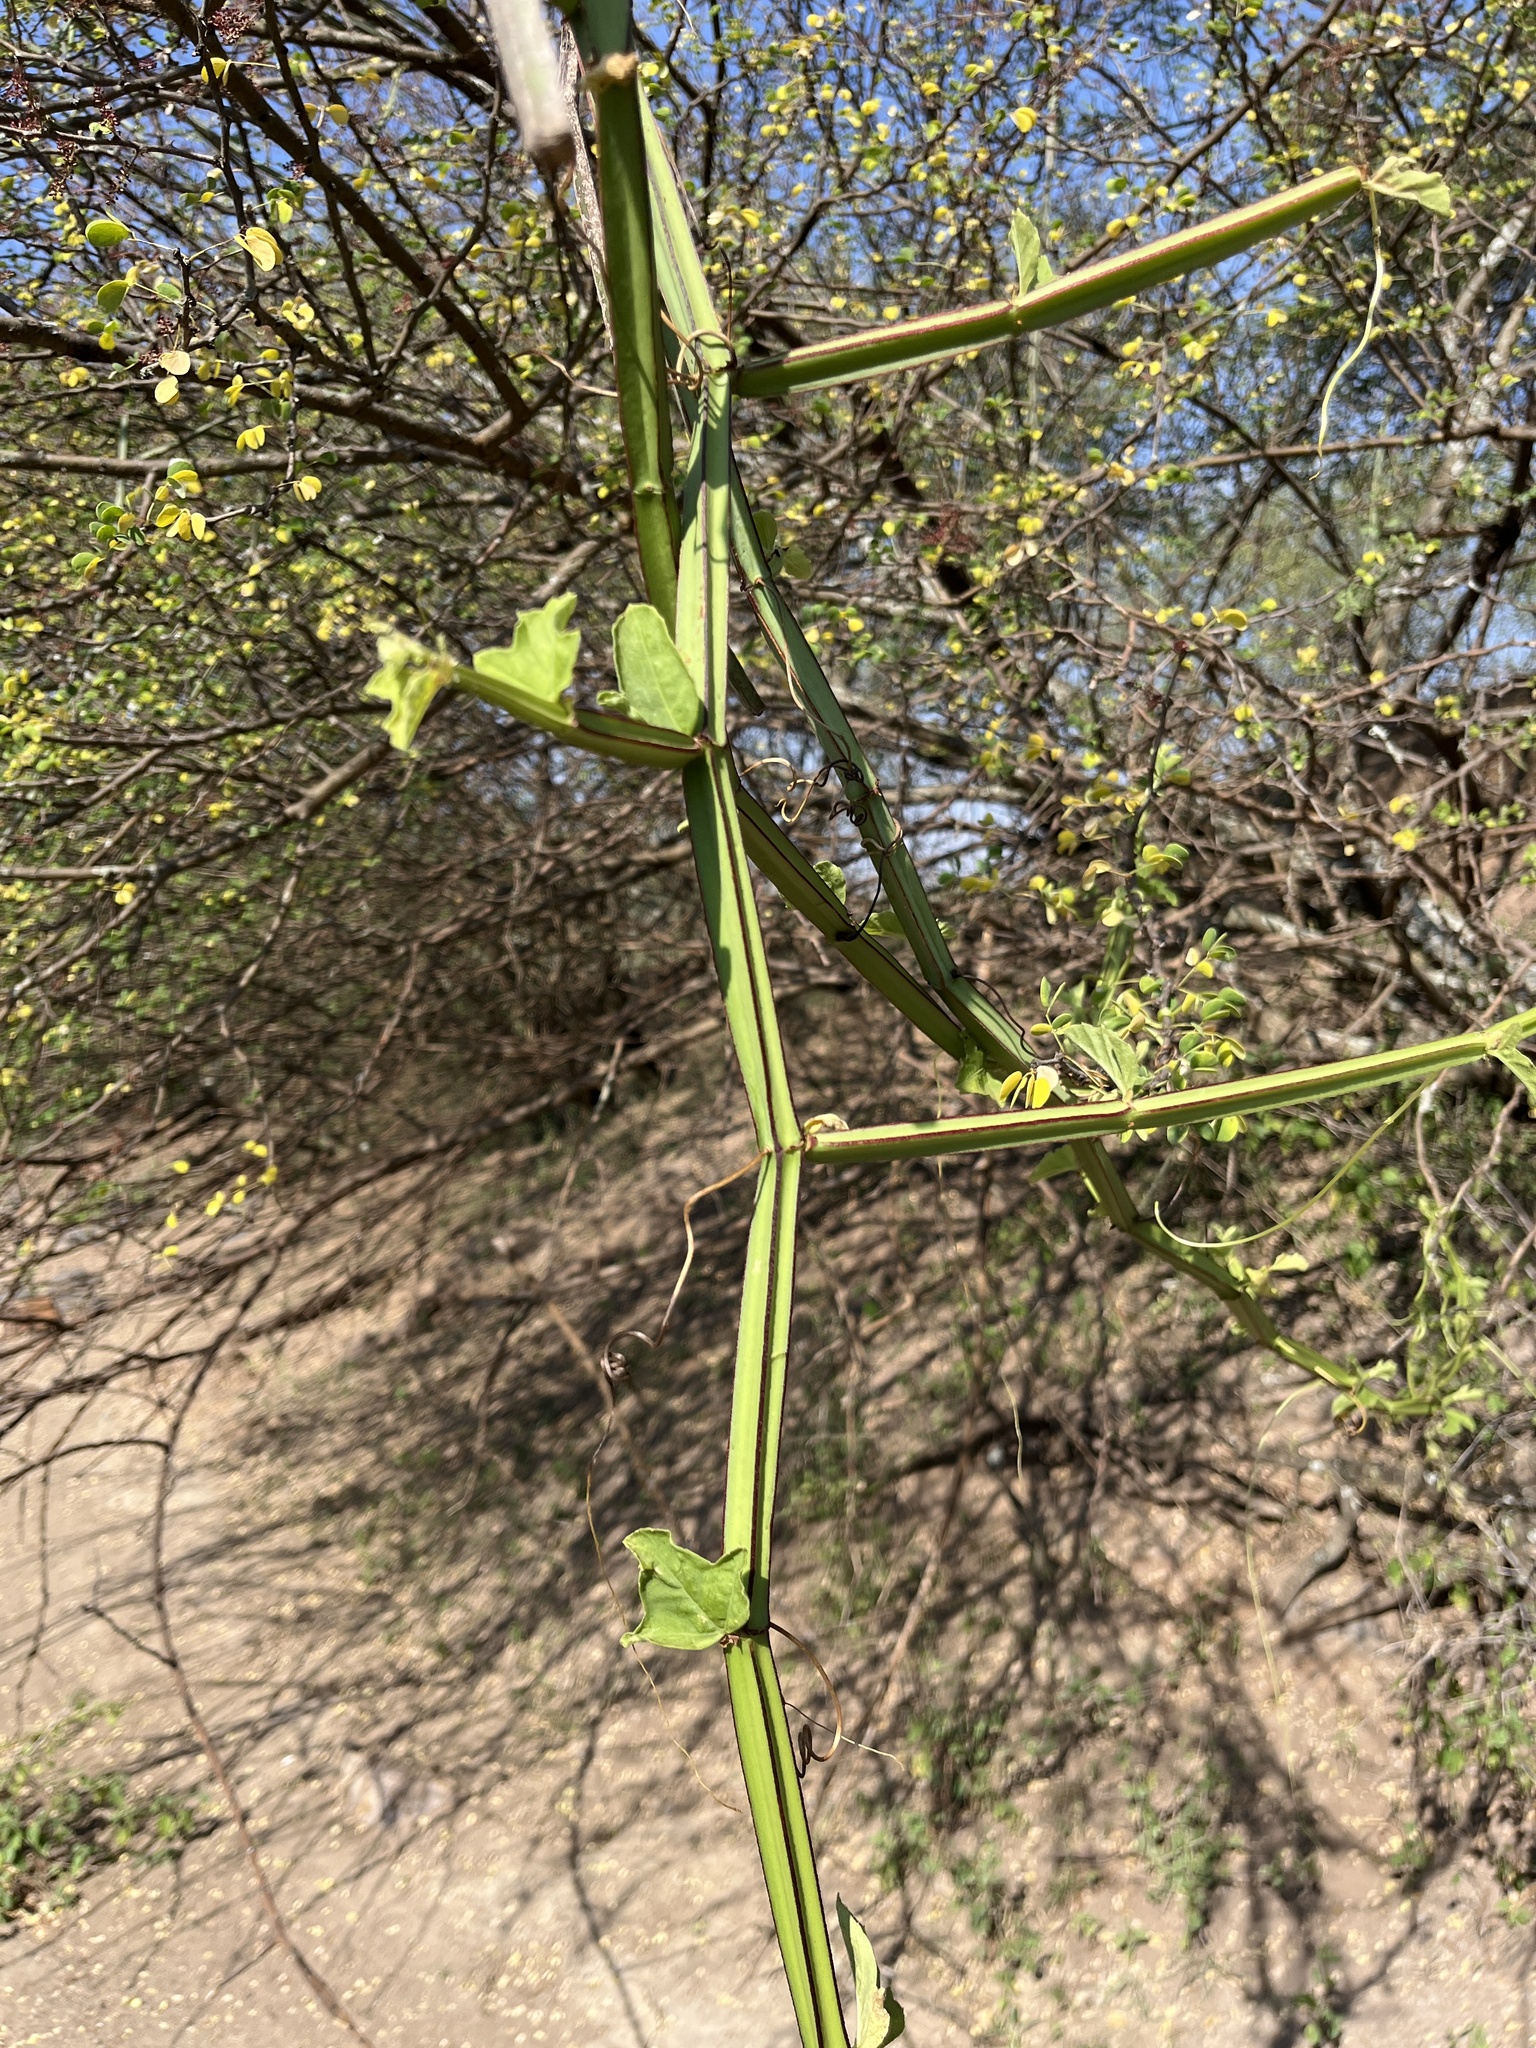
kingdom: Plantae
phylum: Tracheophyta
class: Magnoliopsida
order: Vitales
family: Vitaceae
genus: Cissus
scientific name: Cissus quadrangularis
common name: Veldt-grape
